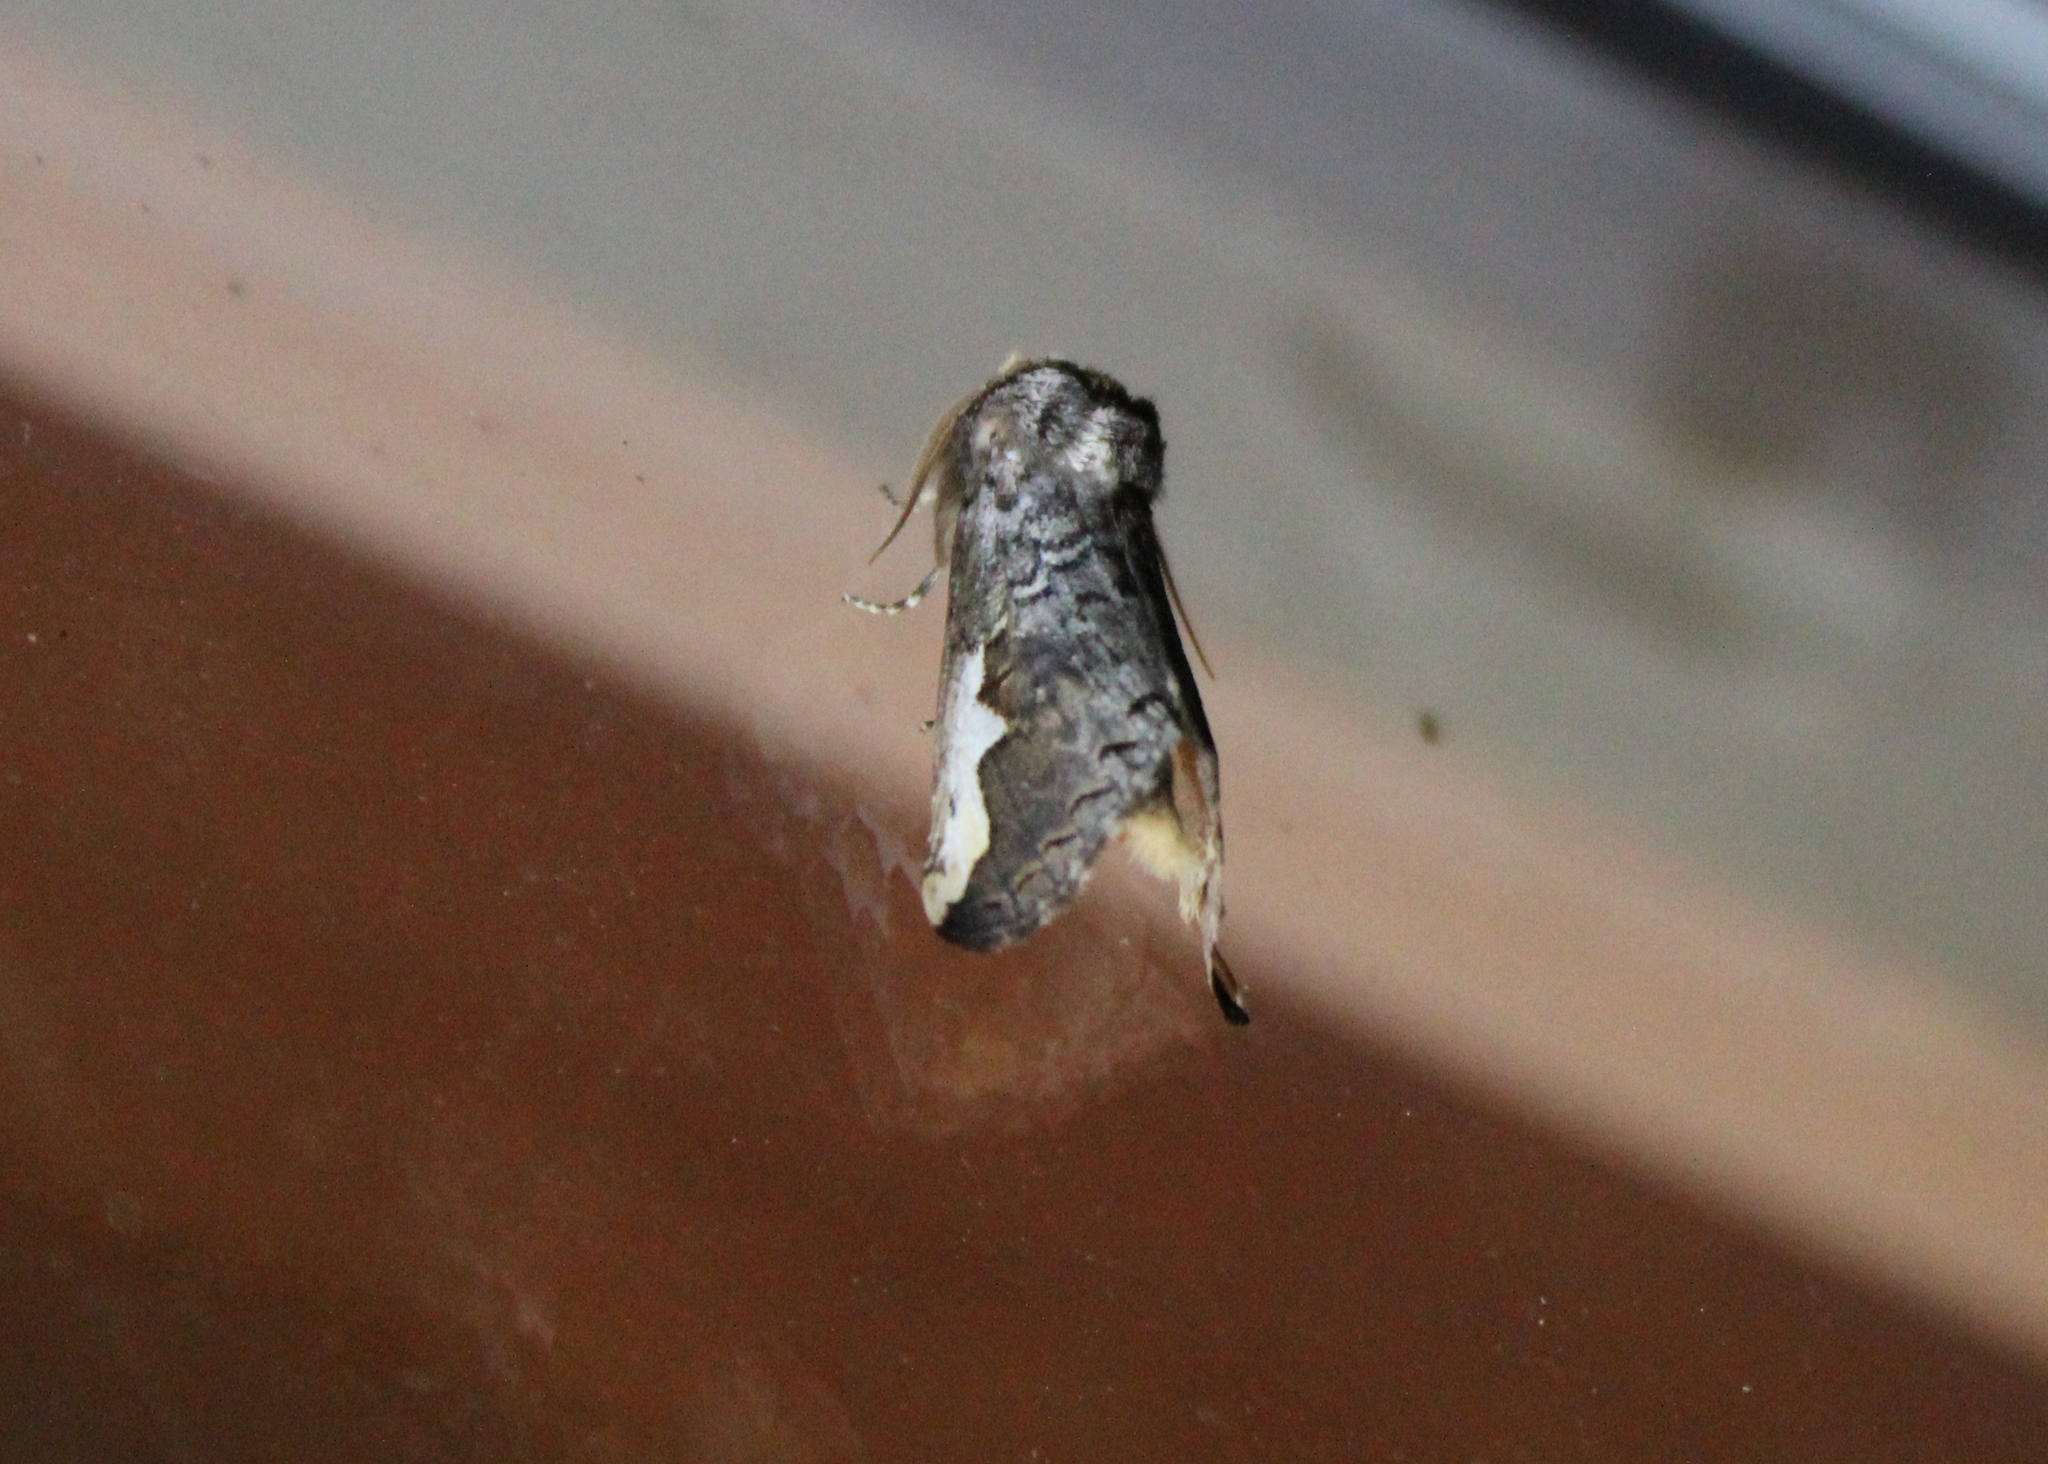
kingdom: Animalia
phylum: Arthropoda
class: Insecta
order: Lepidoptera
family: Notodontidae
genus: Symmerista
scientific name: Symmerista albifrons
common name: White-headed prominent
